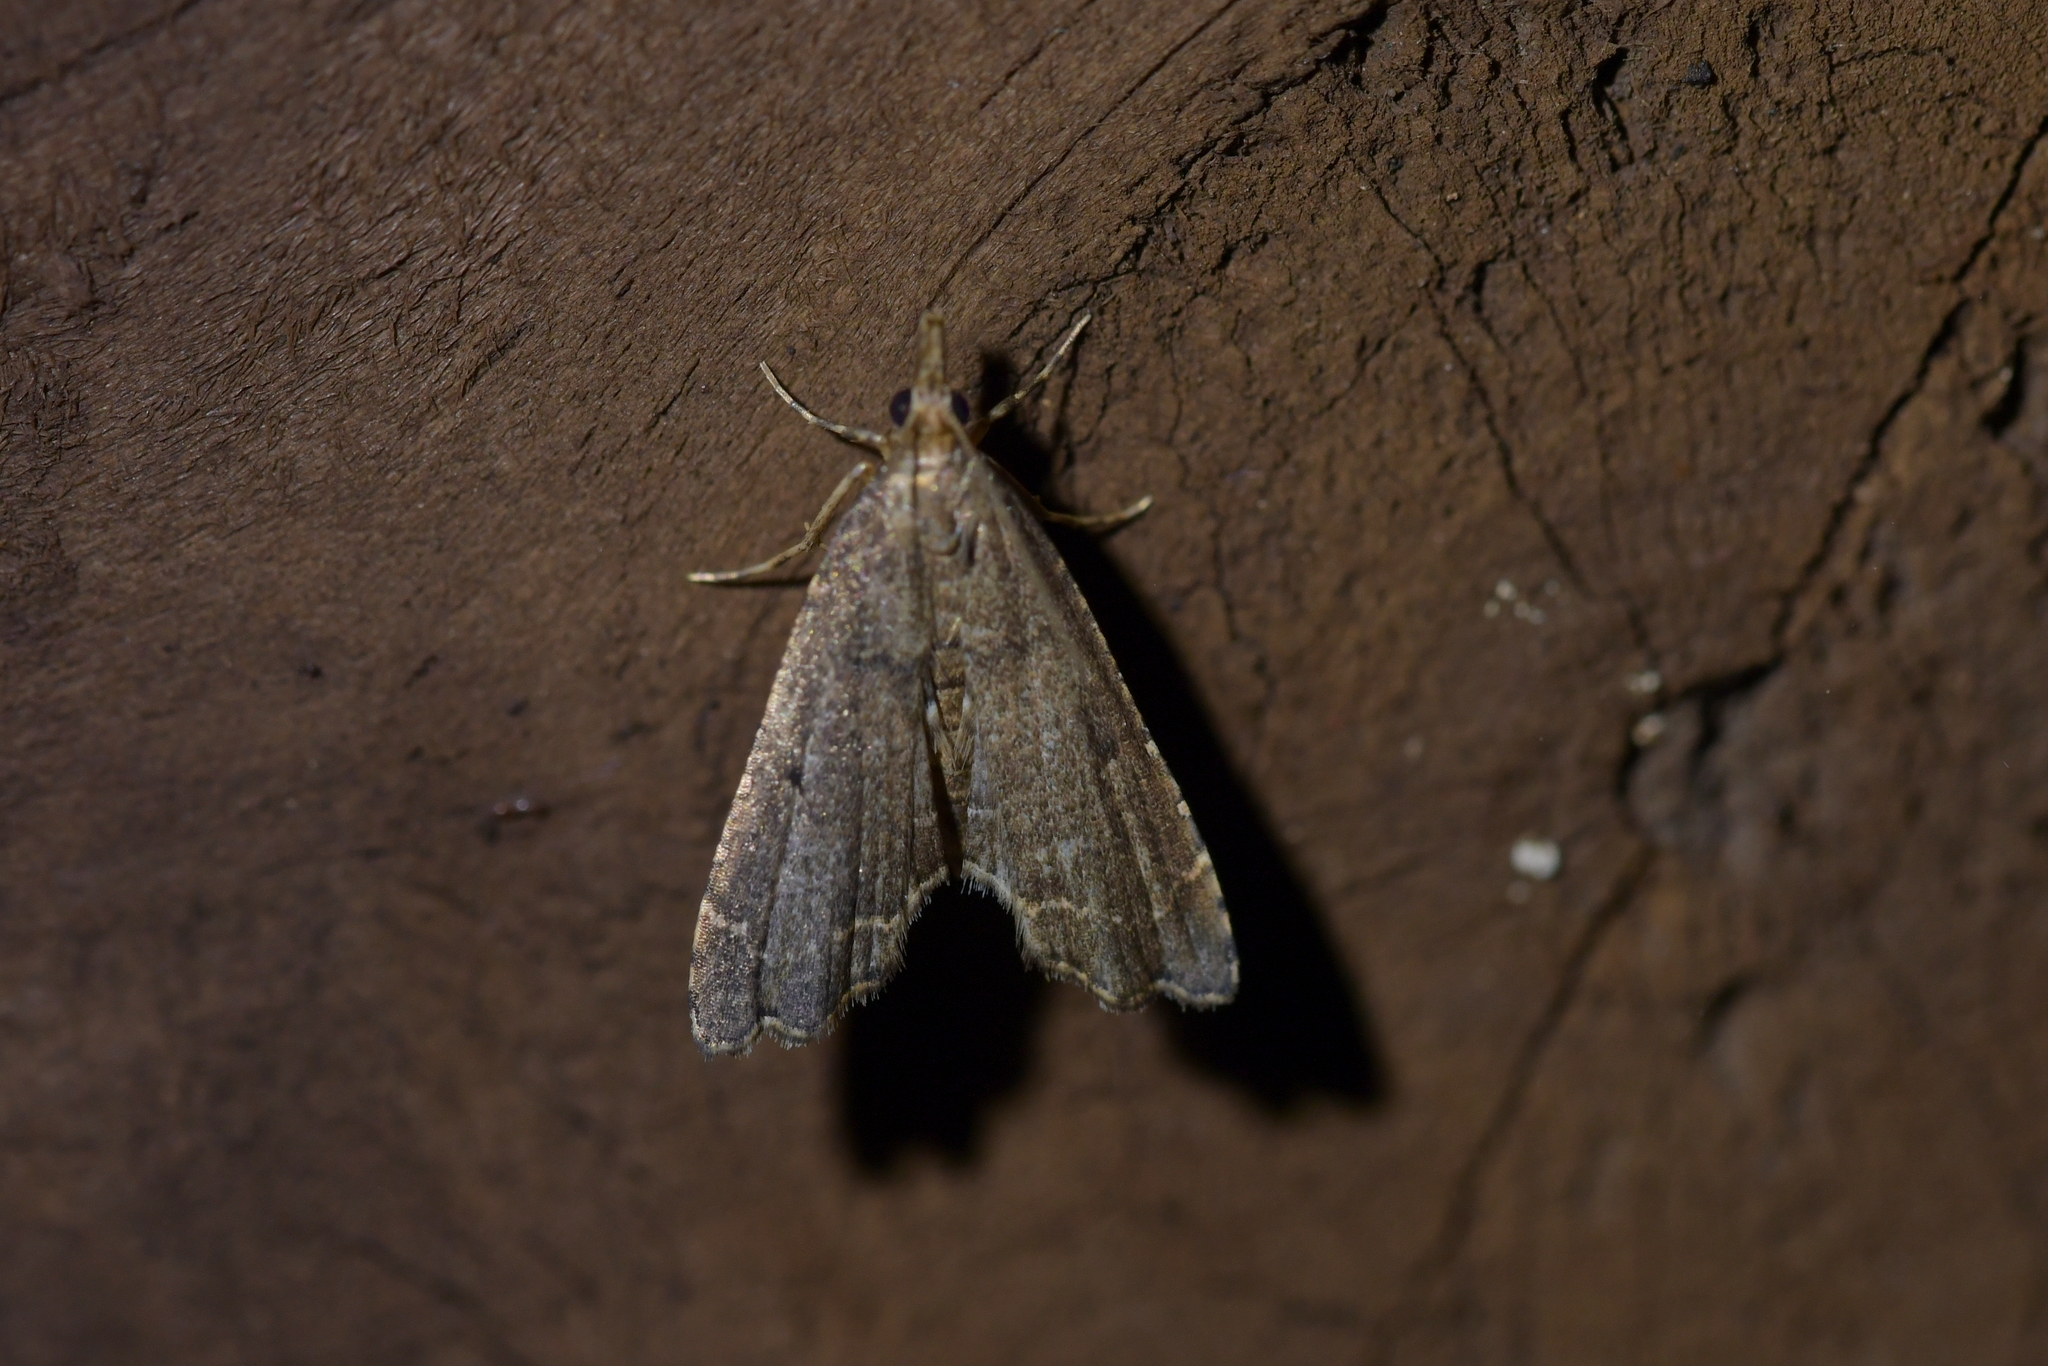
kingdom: Animalia
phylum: Arthropoda
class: Insecta
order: Lepidoptera
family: Crambidae
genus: Diplopseustis
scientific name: Diplopseustis perieresalis
